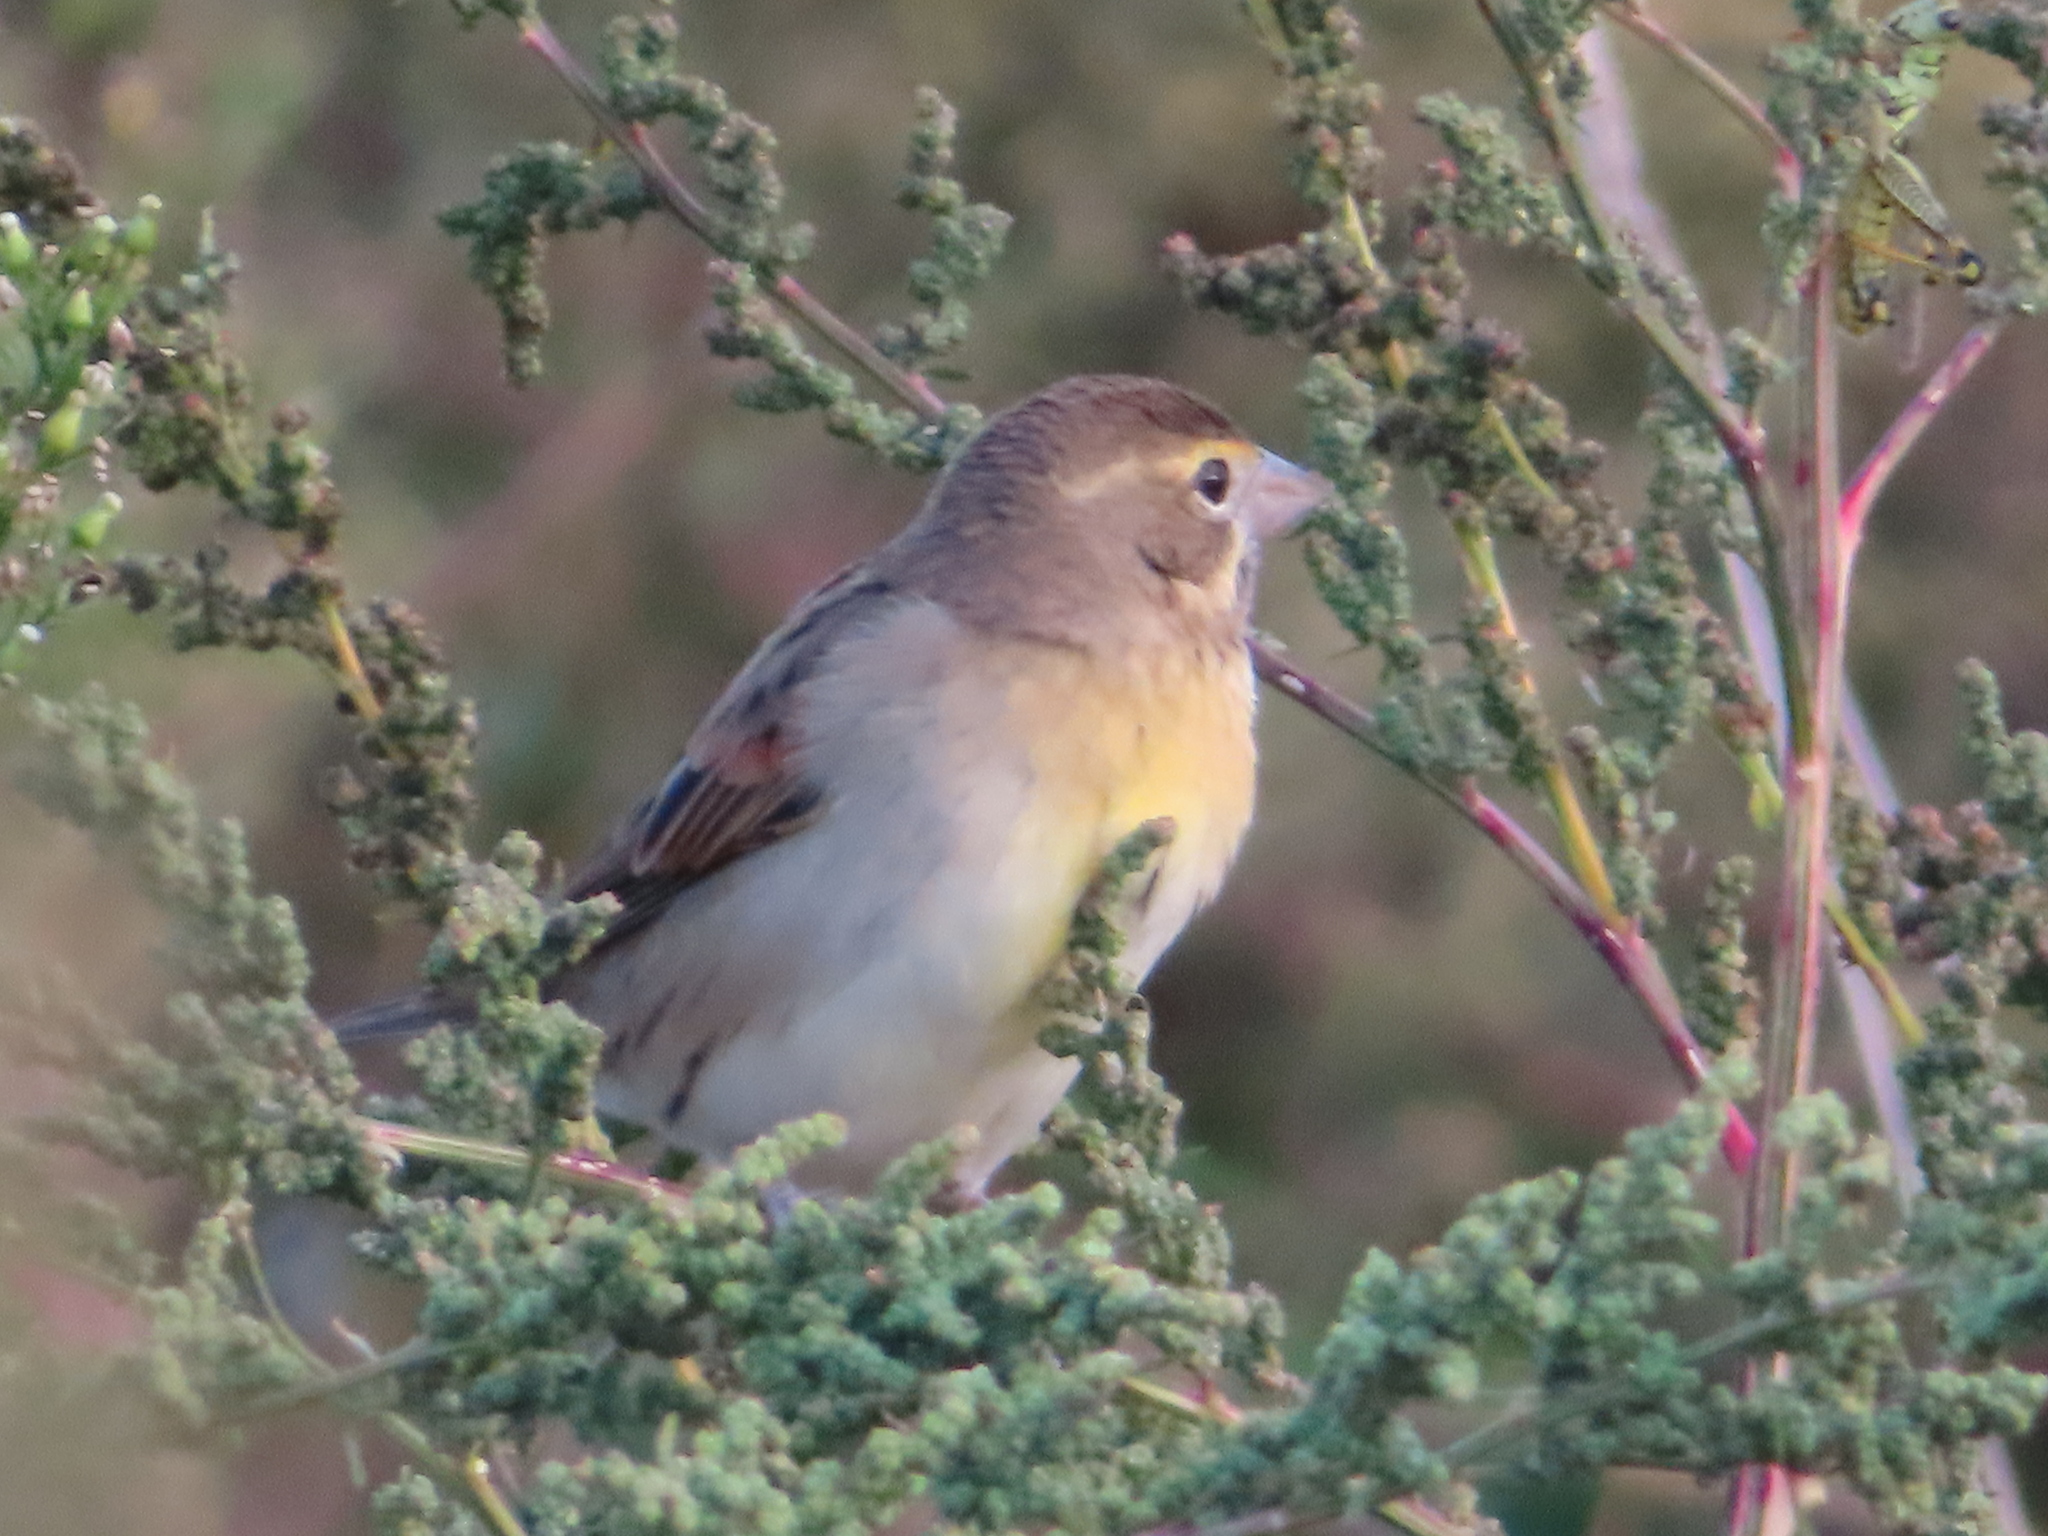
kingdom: Animalia
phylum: Chordata
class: Aves
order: Passeriformes
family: Cardinalidae
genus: Spiza
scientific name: Spiza americana
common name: Dickcissel
